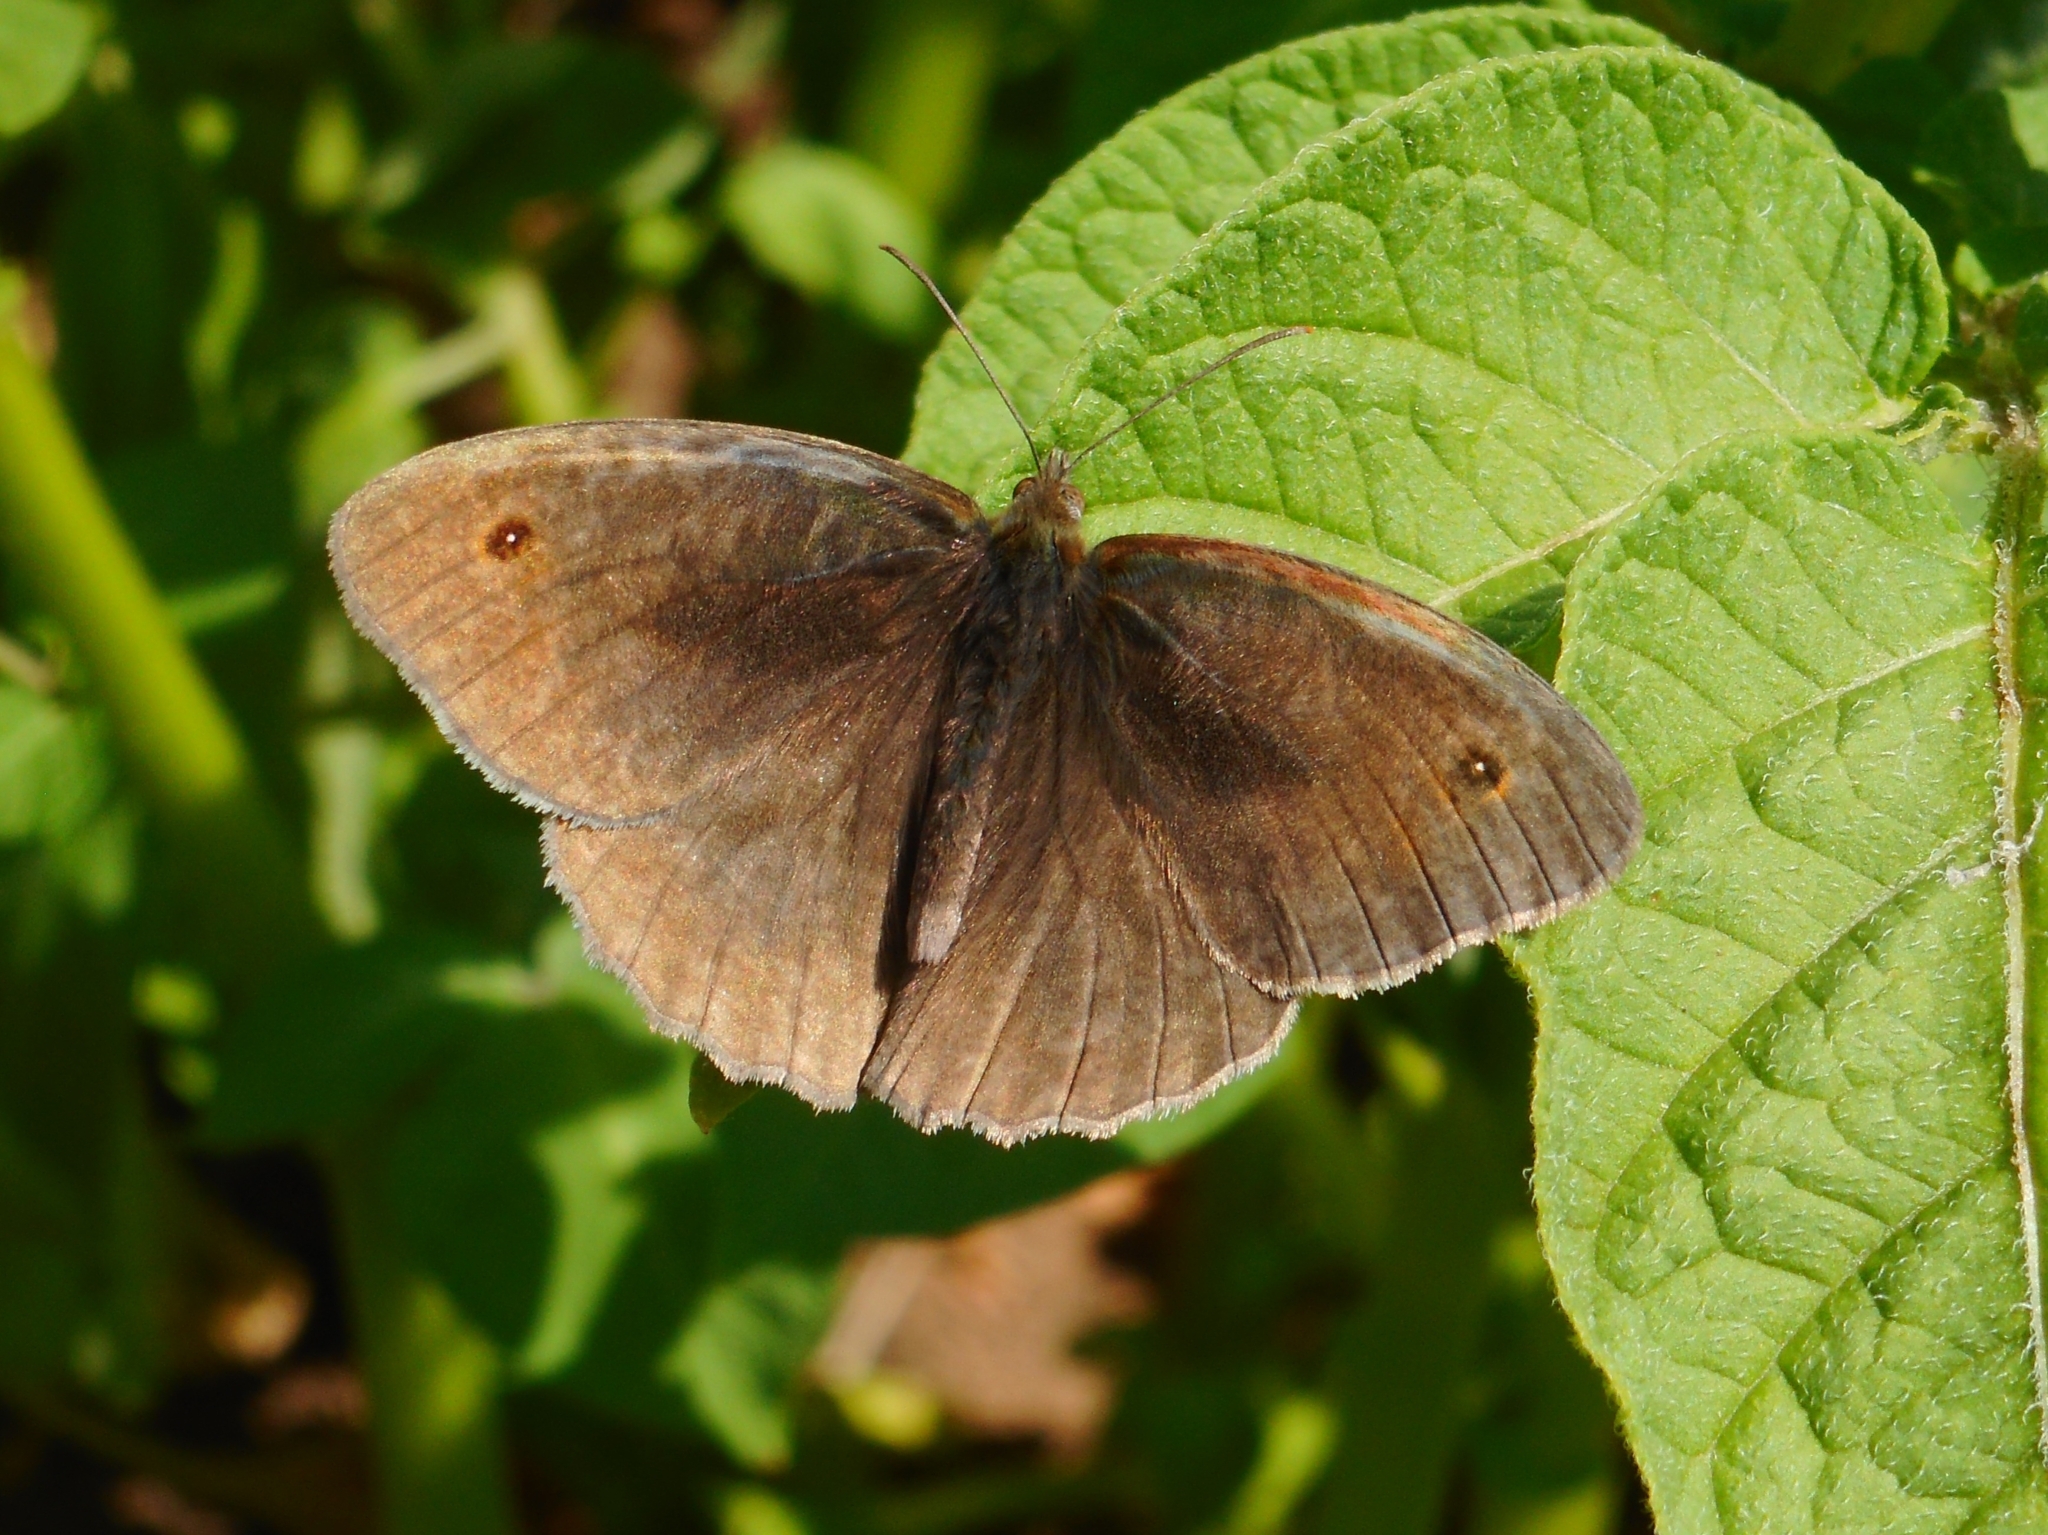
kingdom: Animalia
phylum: Arthropoda
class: Insecta
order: Lepidoptera
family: Nymphalidae
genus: Maniola
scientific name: Maniola jurtina
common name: Meadow brown
